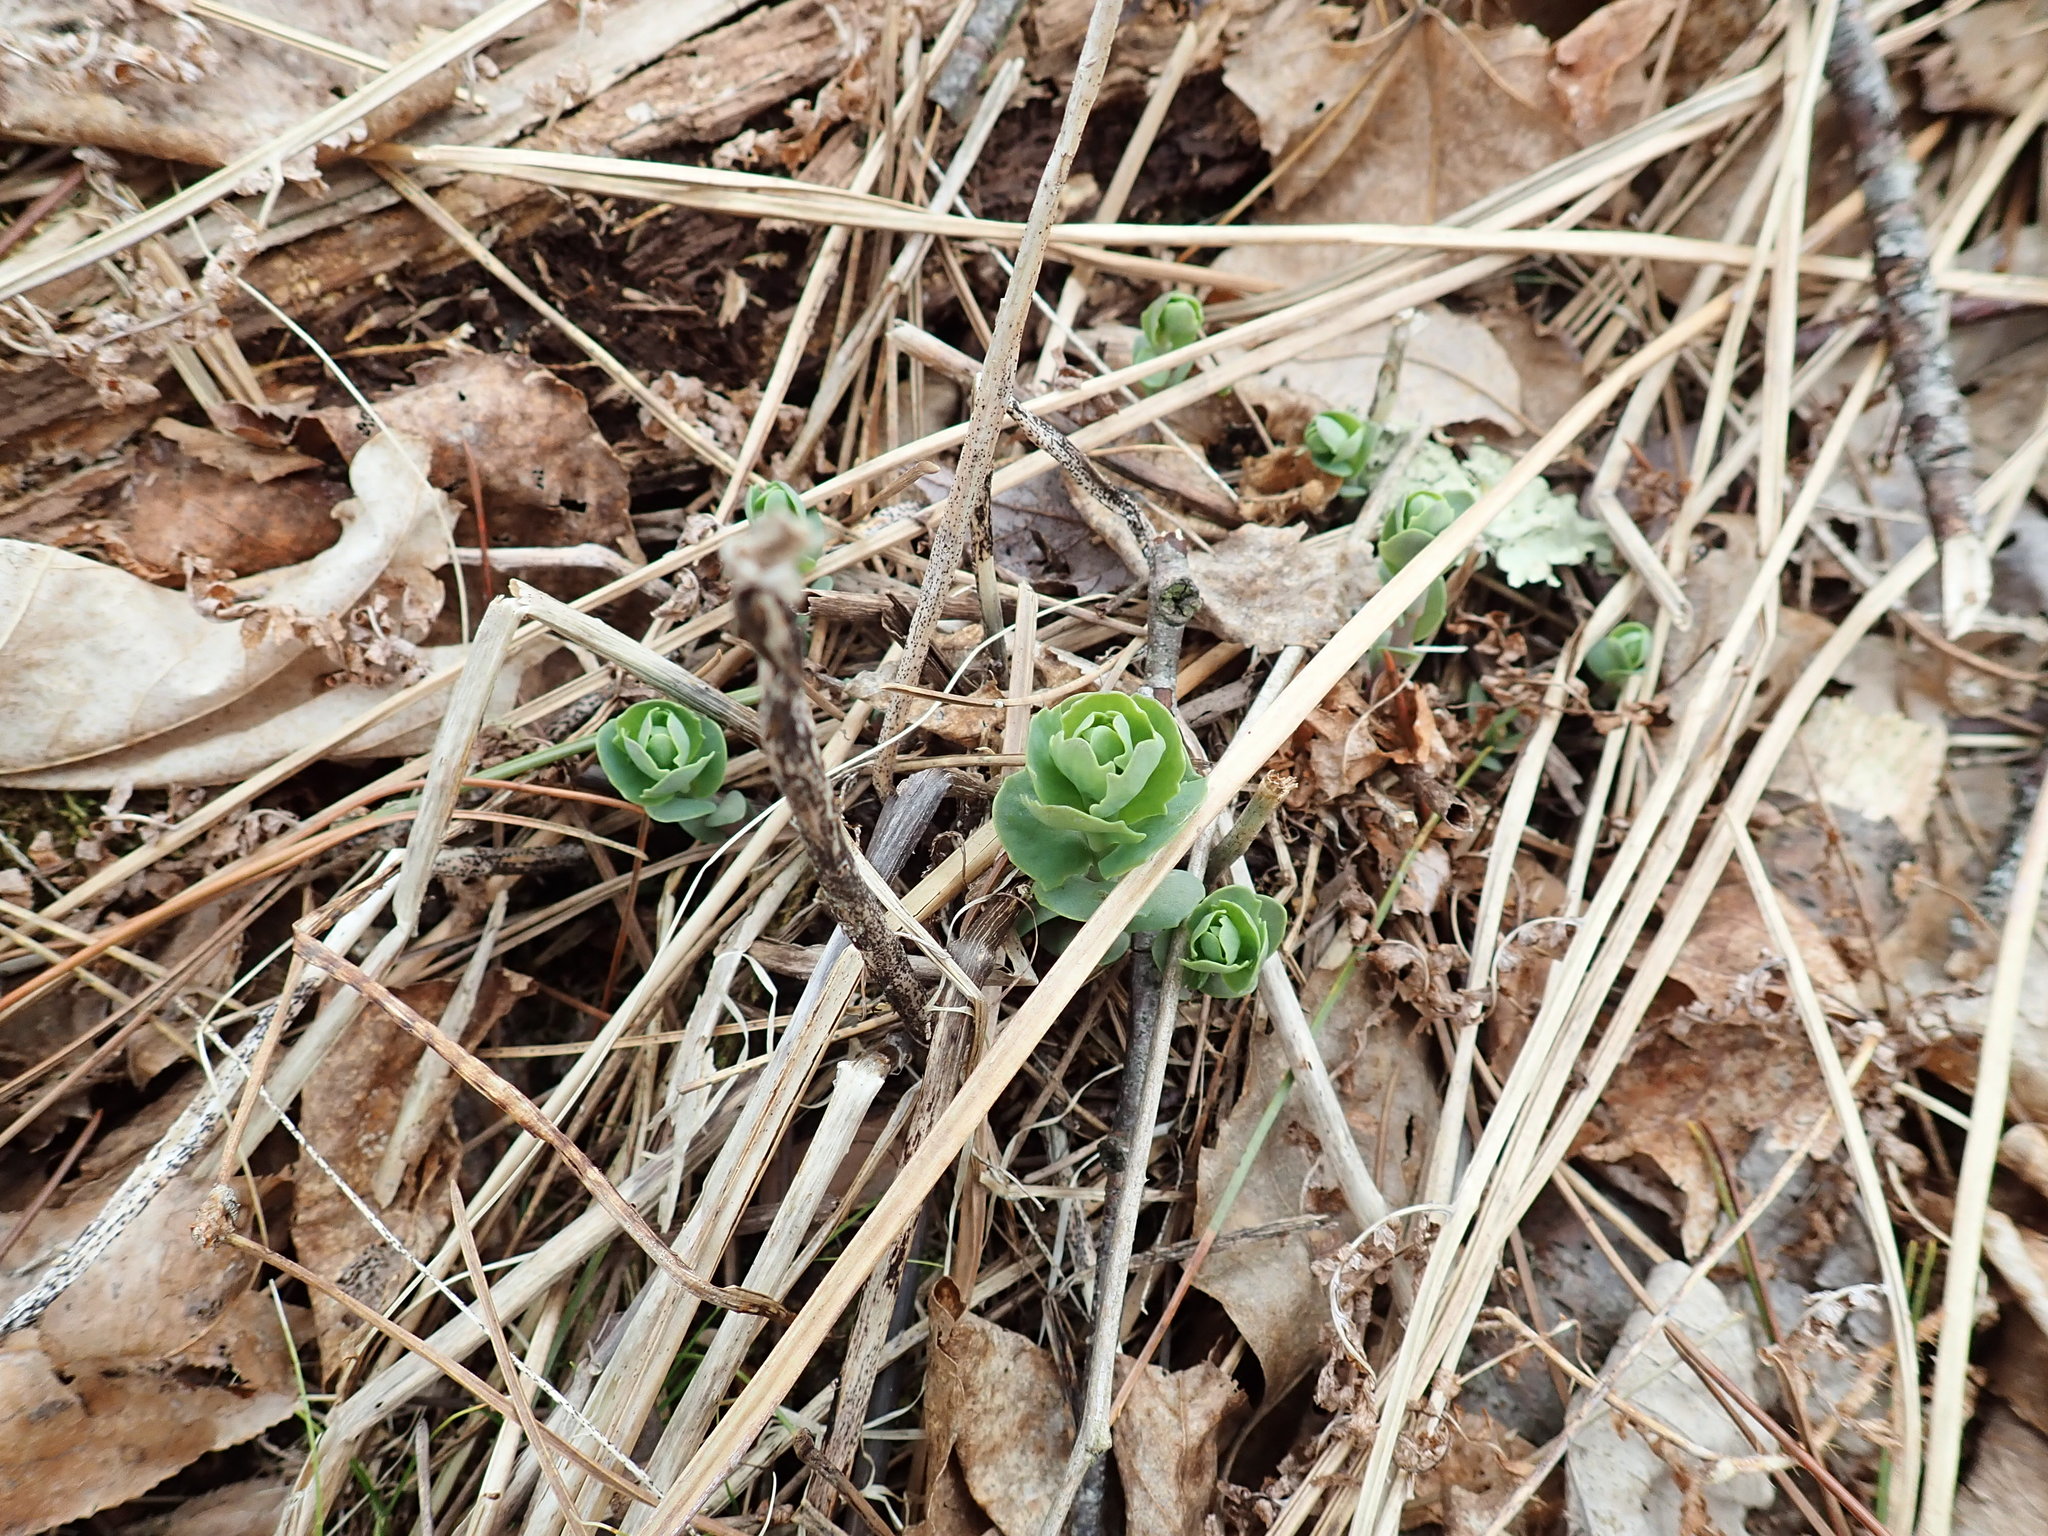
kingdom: Plantae
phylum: Tracheophyta
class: Magnoliopsida
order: Saxifragales
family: Crassulaceae
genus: Hylotelephium
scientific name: Hylotelephium telephium
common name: Live-forever
